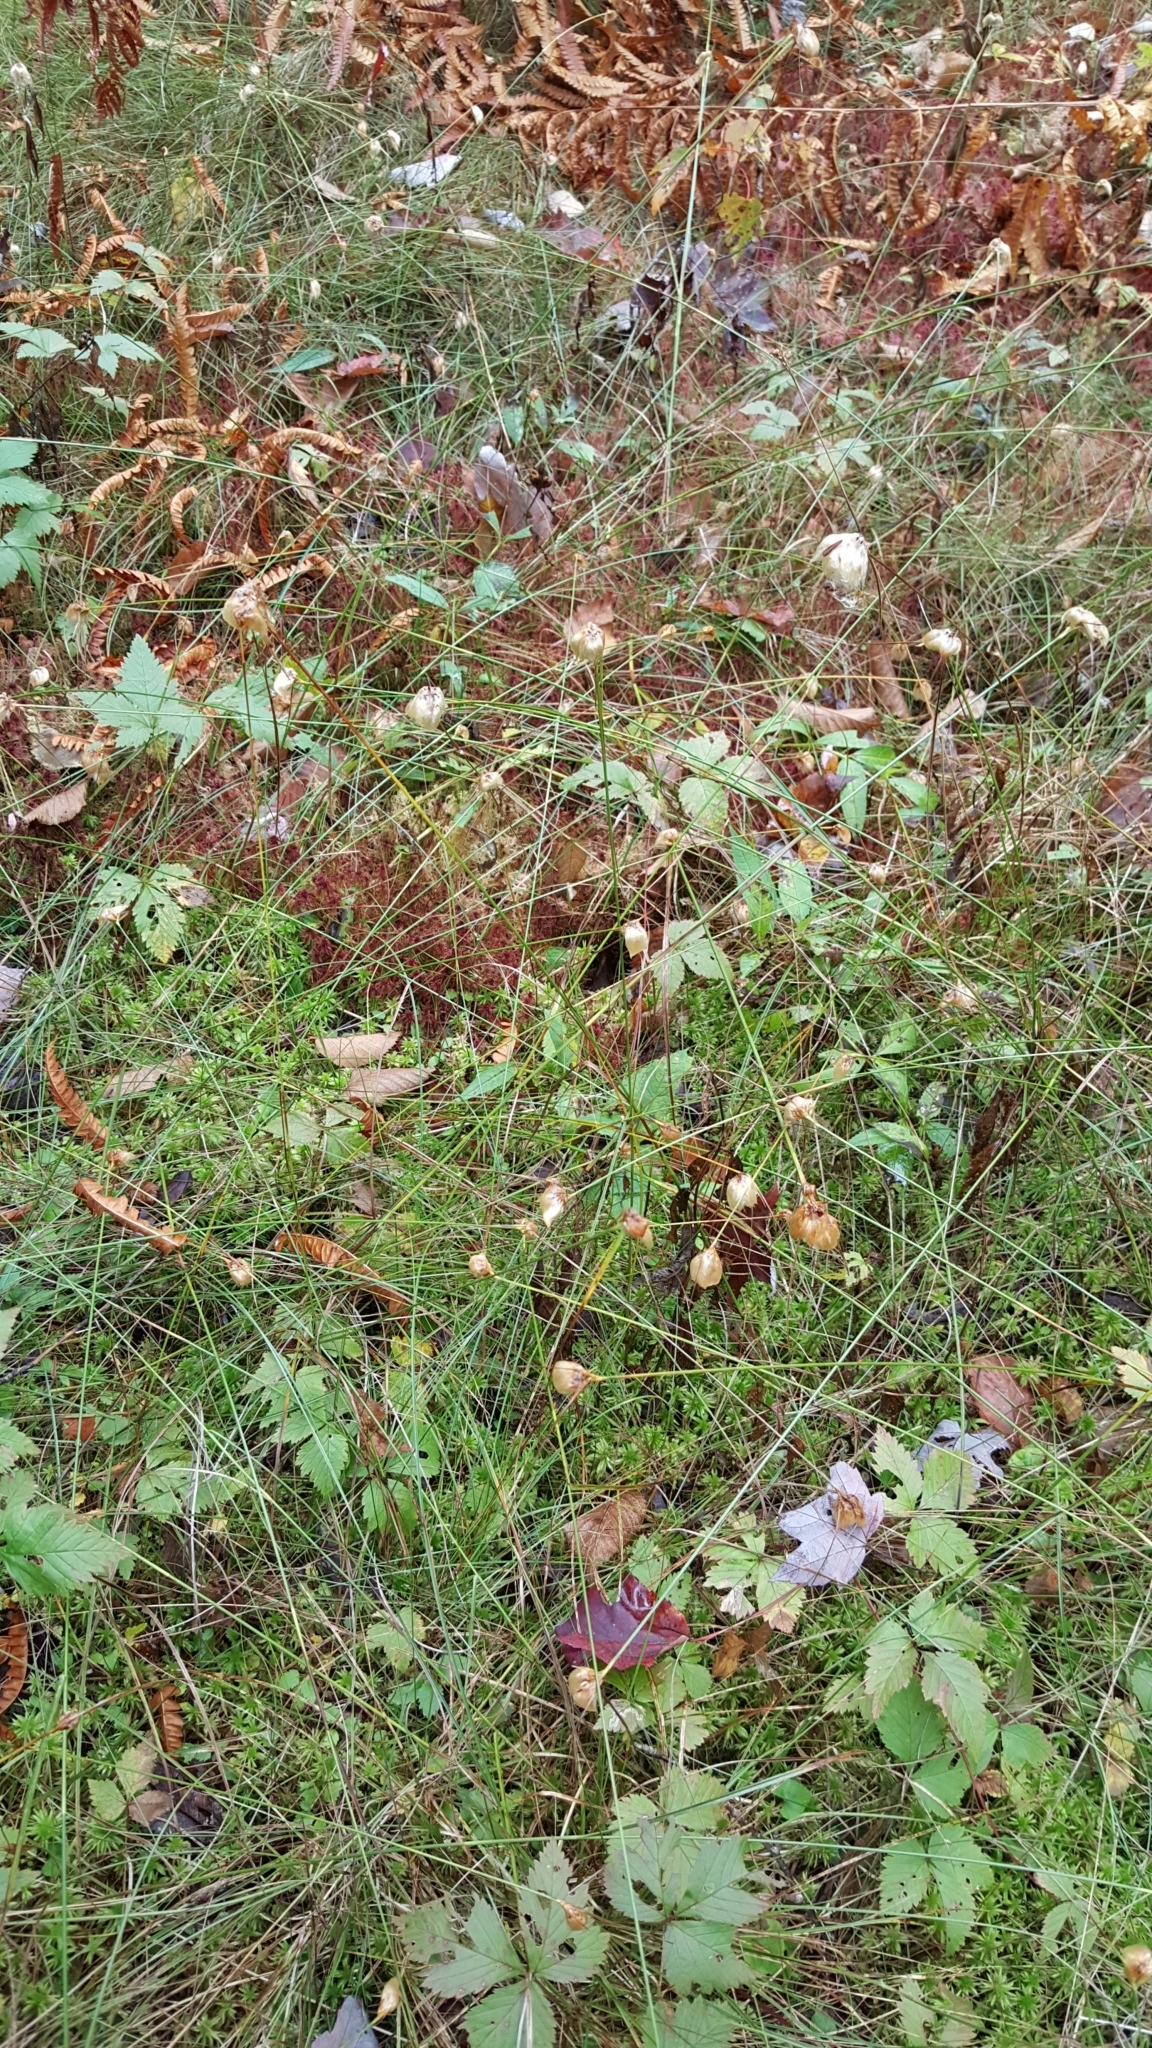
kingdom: Plantae
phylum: Tracheophyta
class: Liliopsida
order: Poales
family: Cyperaceae
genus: Eriophorum
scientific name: Eriophorum virginicum
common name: Tawny cottongrass
